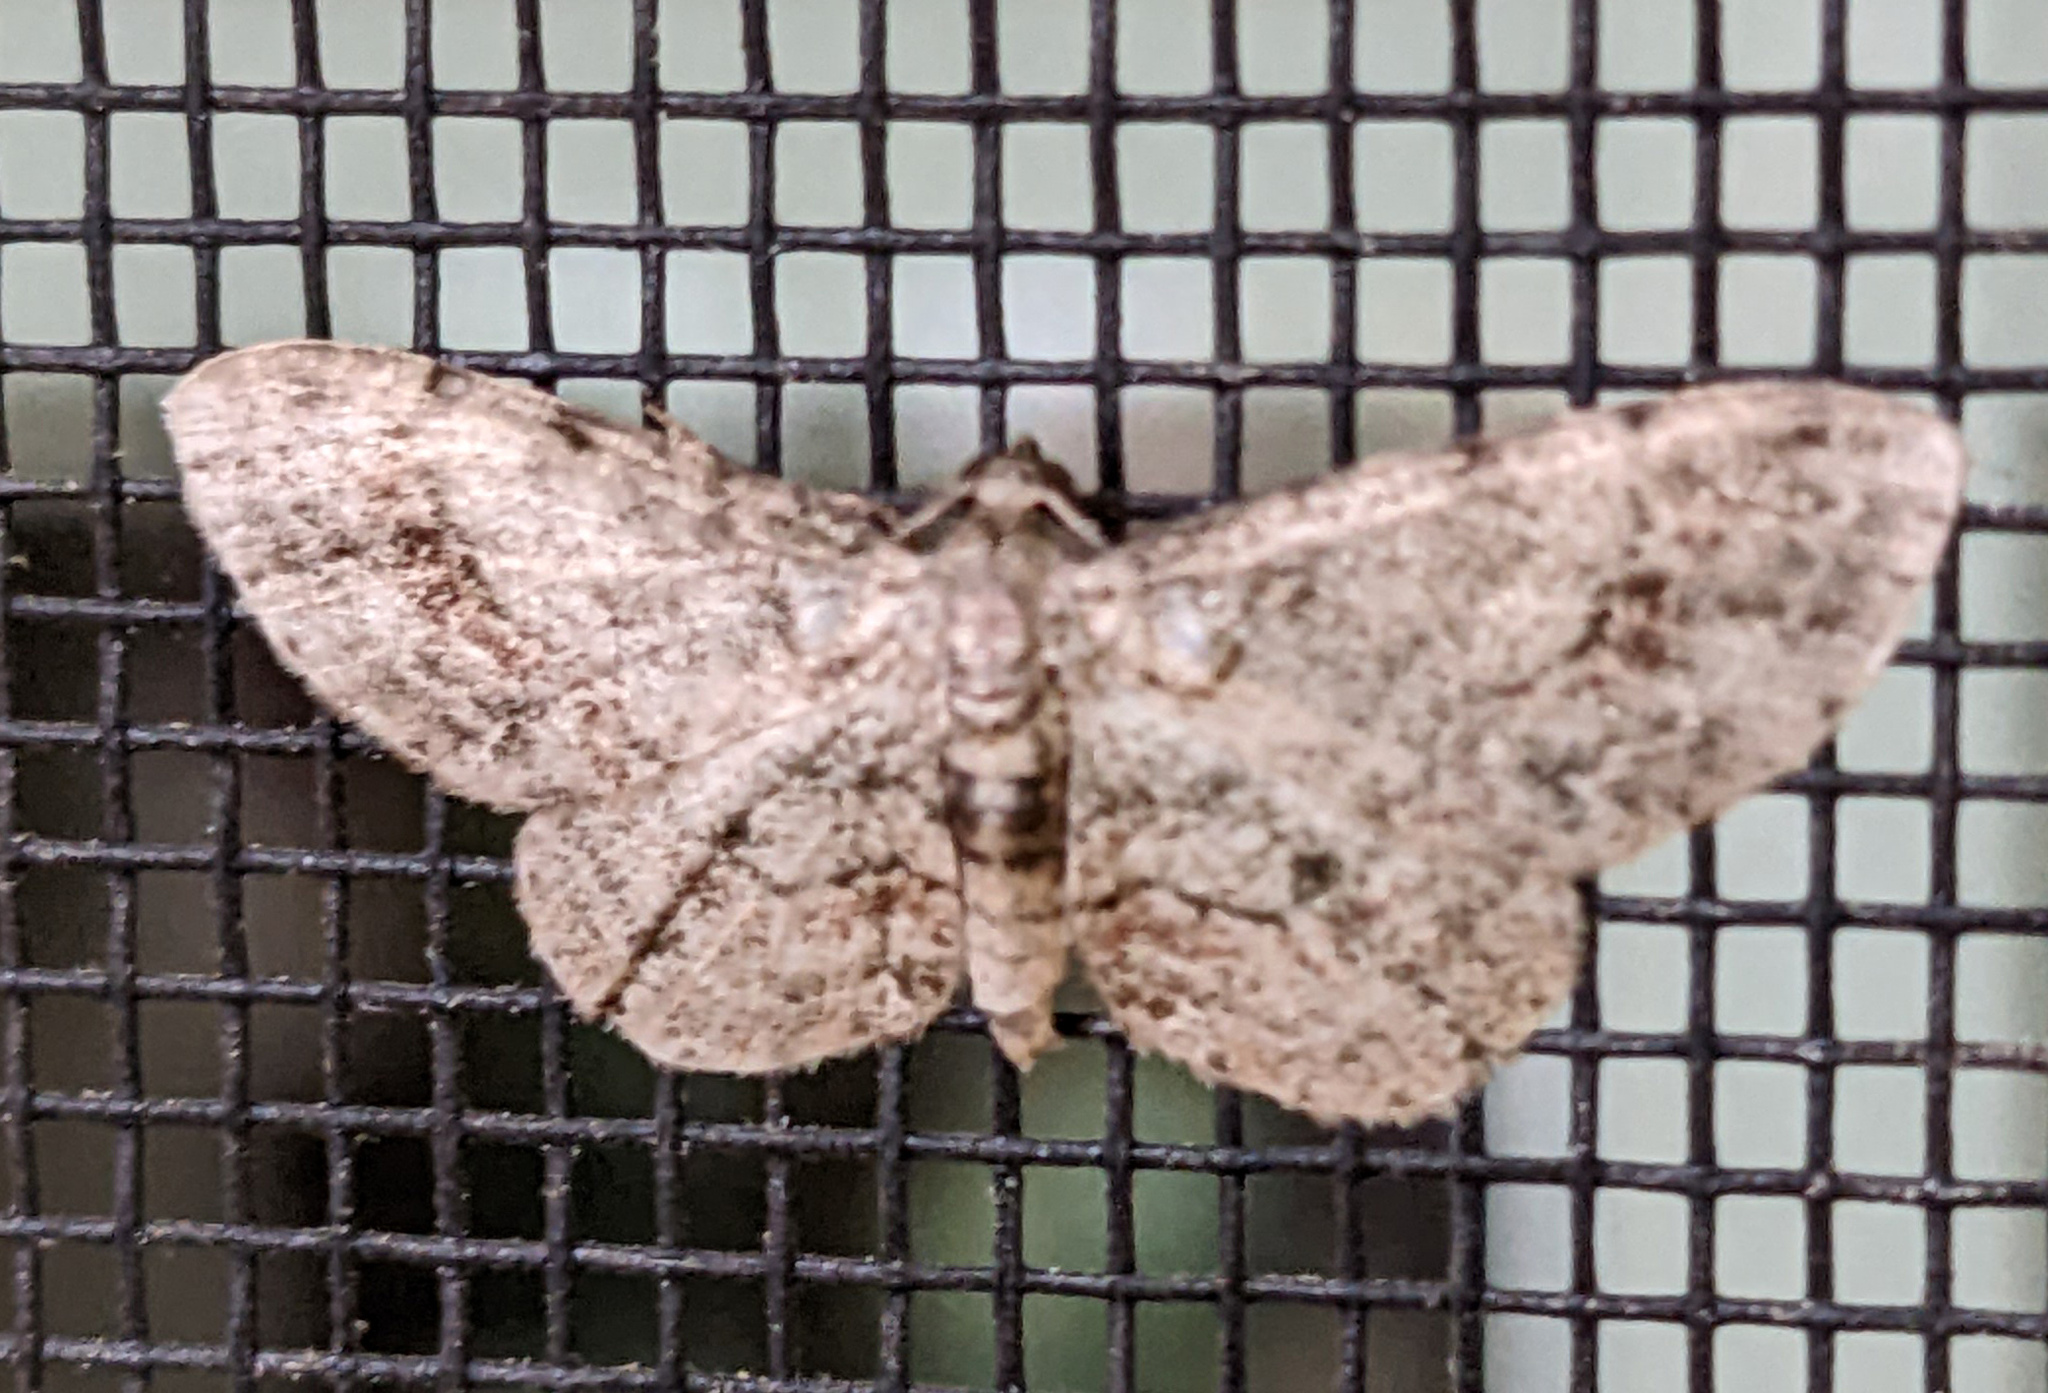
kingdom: Animalia
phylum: Arthropoda
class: Insecta
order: Lepidoptera
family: Geometridae
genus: Glenoides
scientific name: Glenoides texanaria
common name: Texas gray
